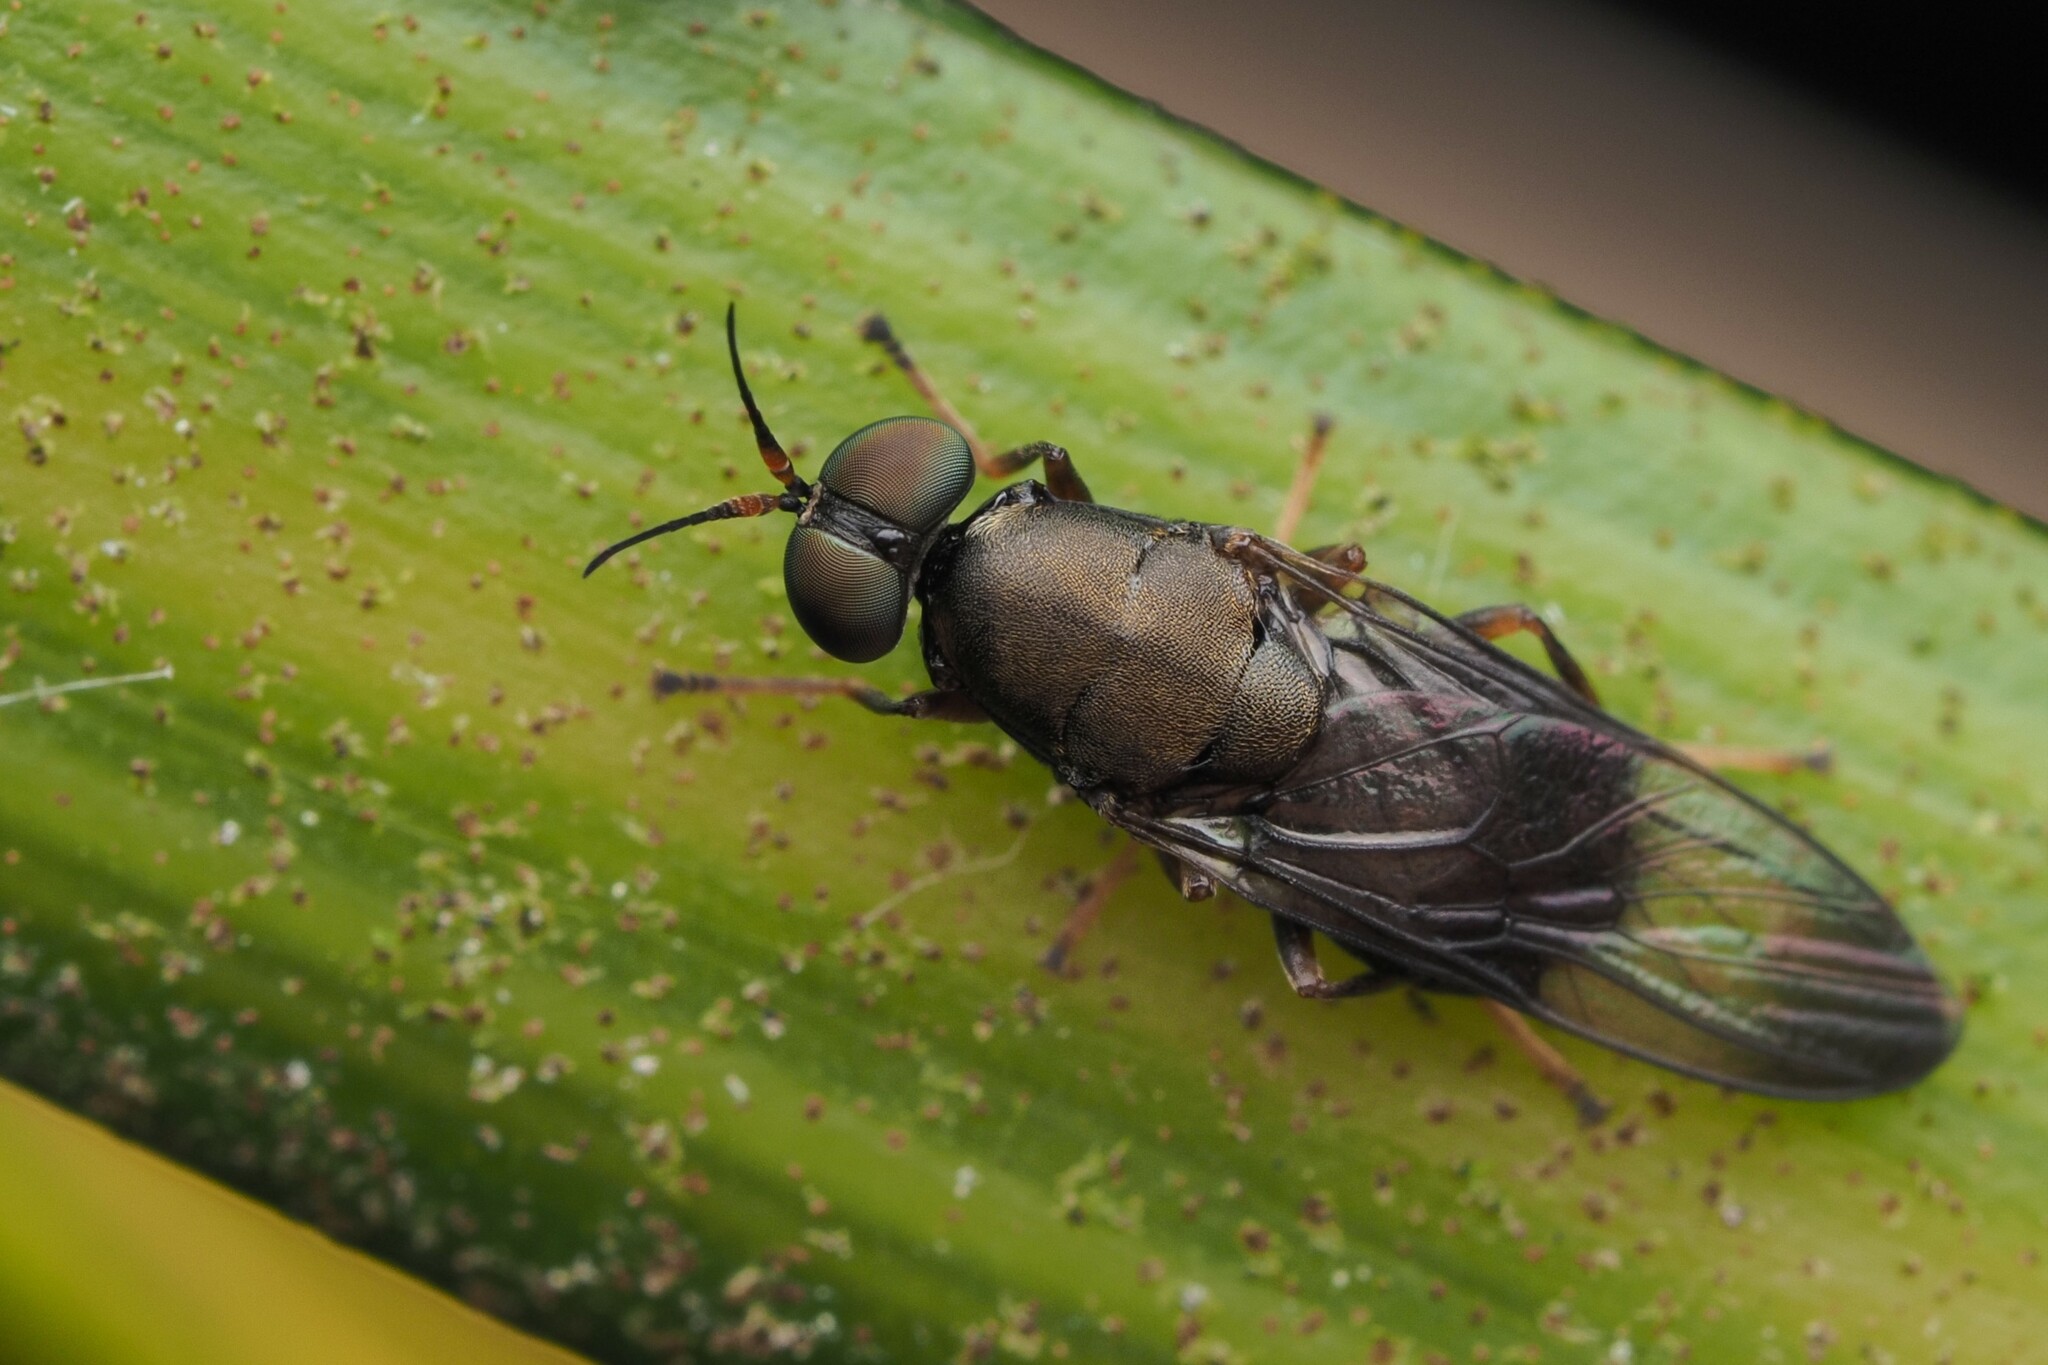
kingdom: Animalia
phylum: Arthropoda
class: Insecta
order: Diptera
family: Stratiomyidae
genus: Dysbiota
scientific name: Dysbiota peregrina
